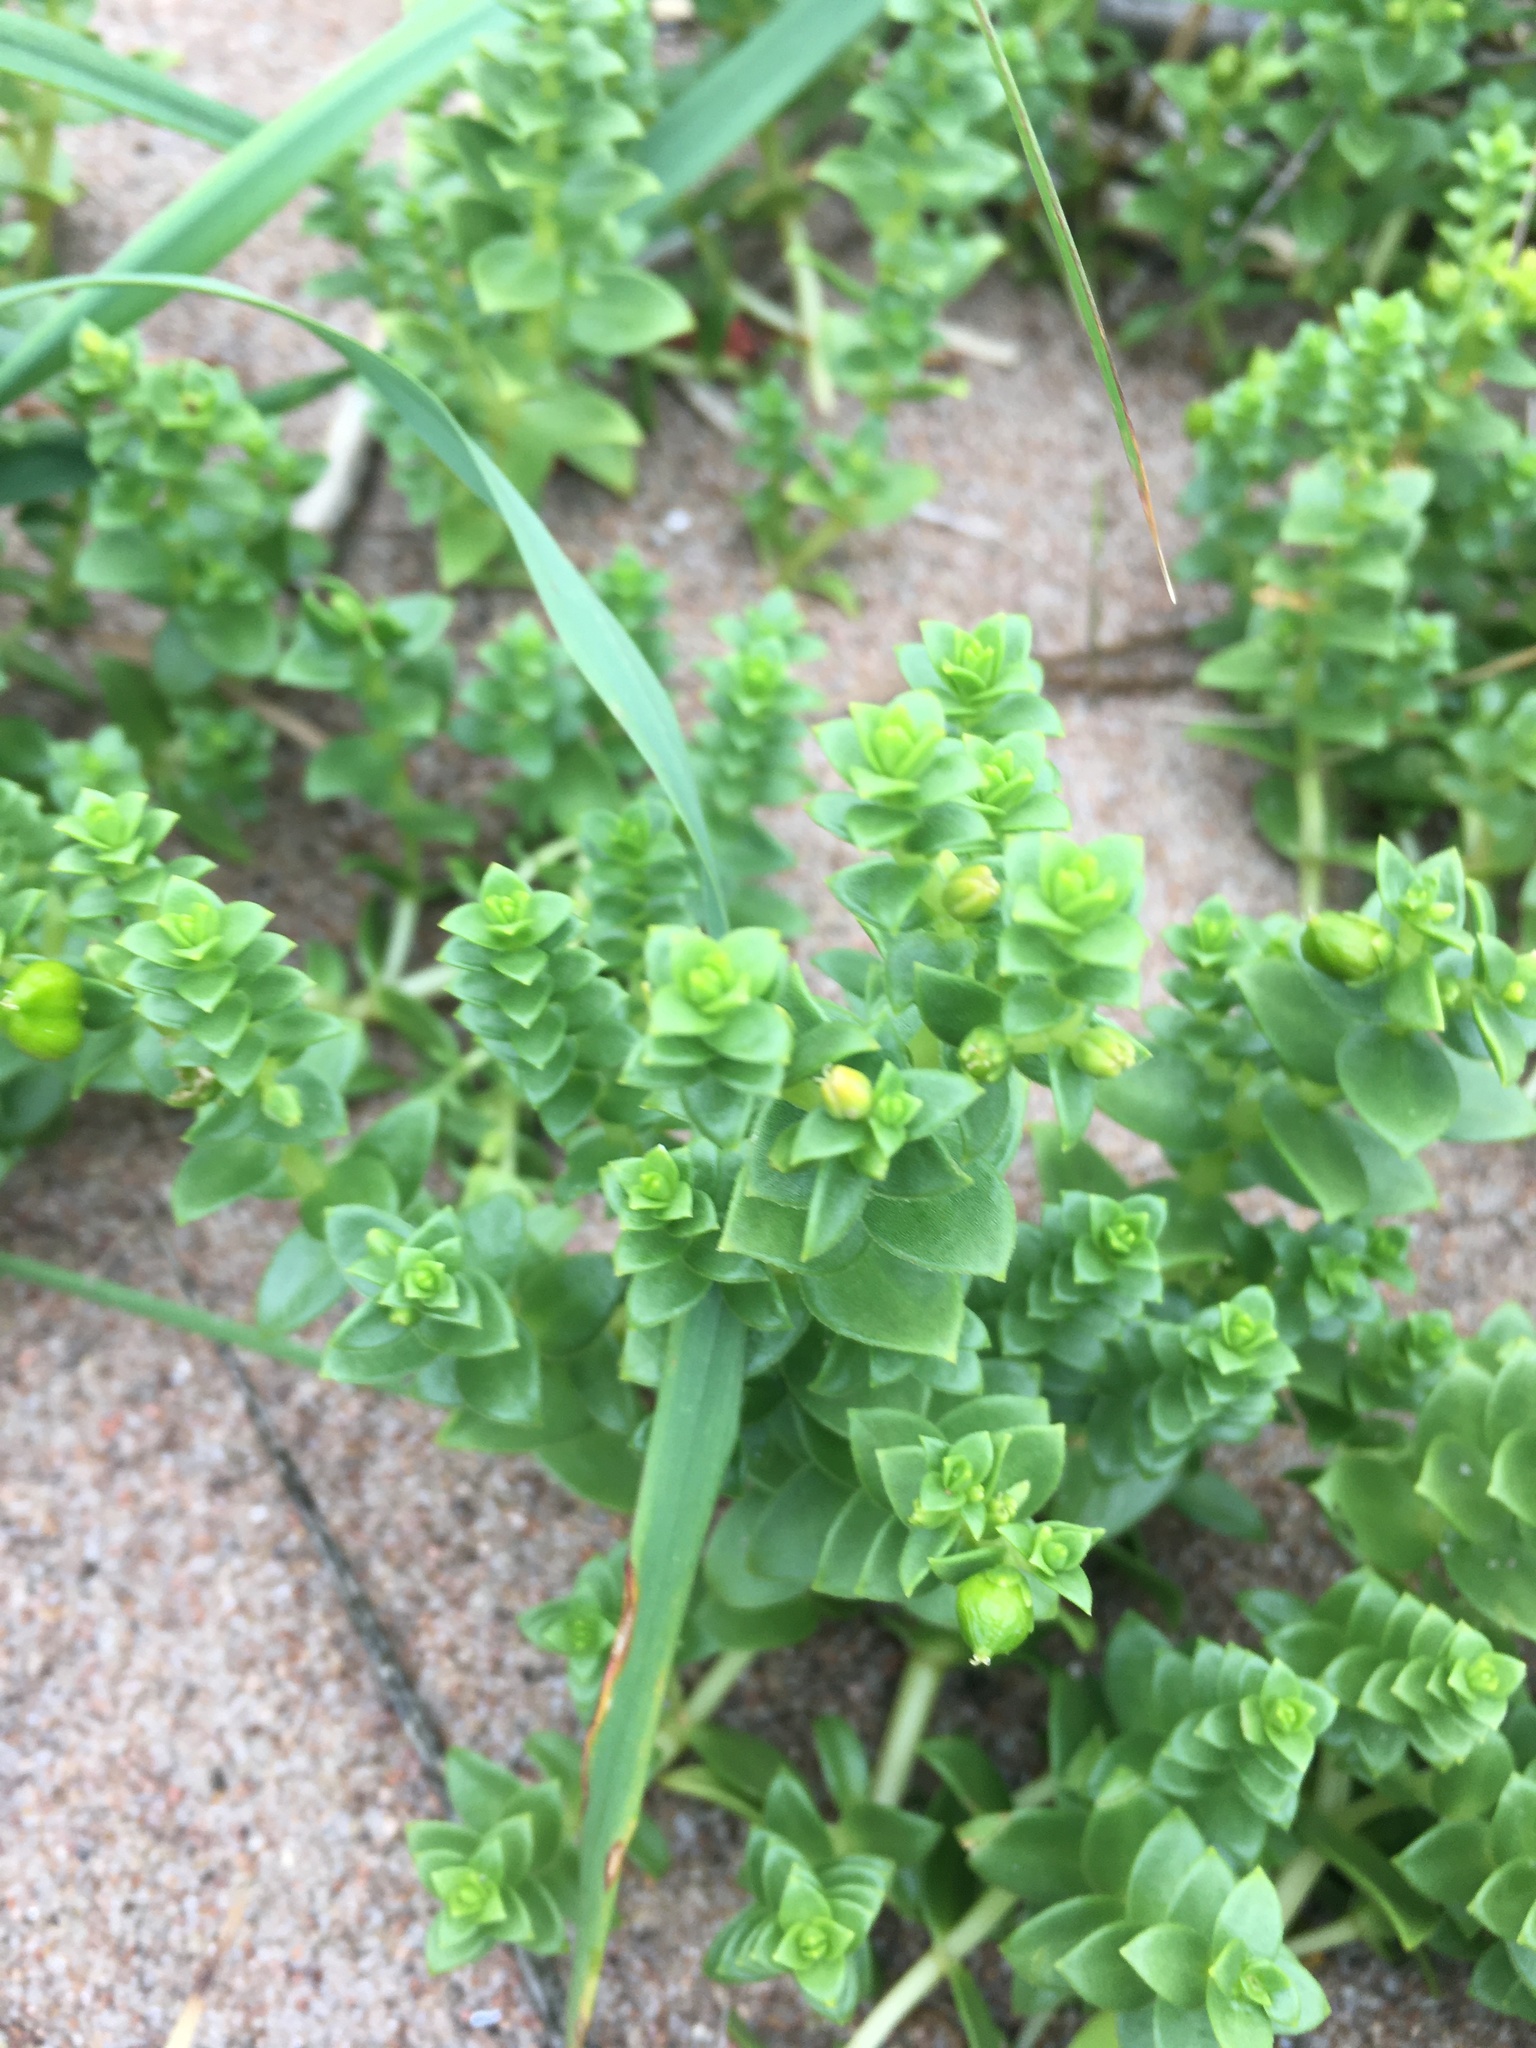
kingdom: Plantae
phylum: Tracheophyta
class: Magnoliopsida
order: Caryophyllales
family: Caryophyllaceae
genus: Honckenya
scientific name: Honckenya peploides
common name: Sea sandwort
